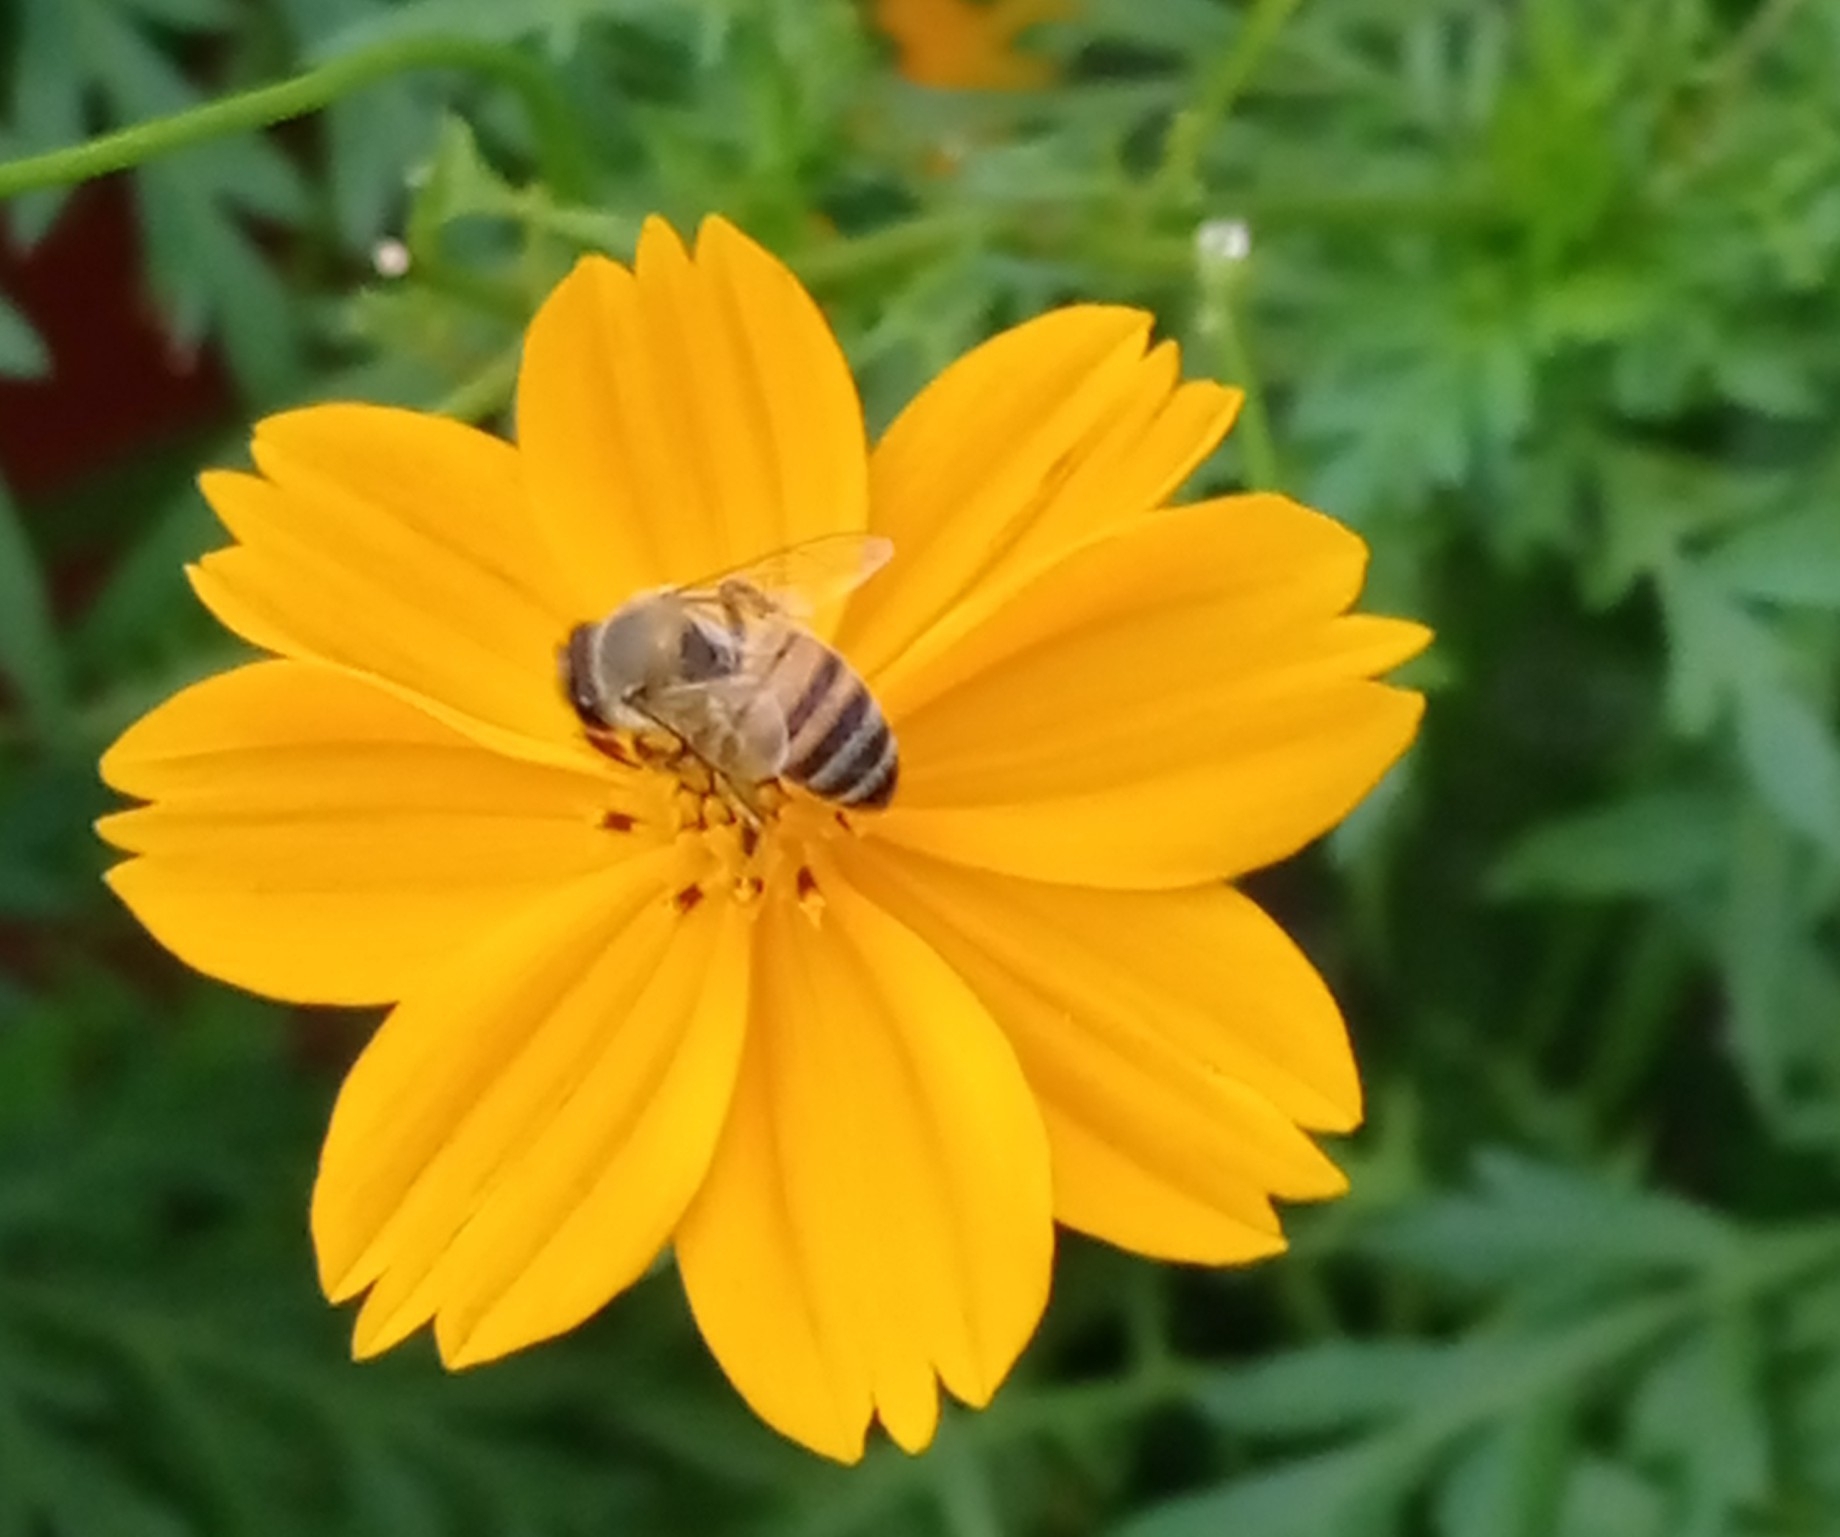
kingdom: Animalia
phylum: Arthropoda
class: Insecta
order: Hymenoptera
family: Apidae
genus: Apis
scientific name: Apis mellifera
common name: Honey bee
